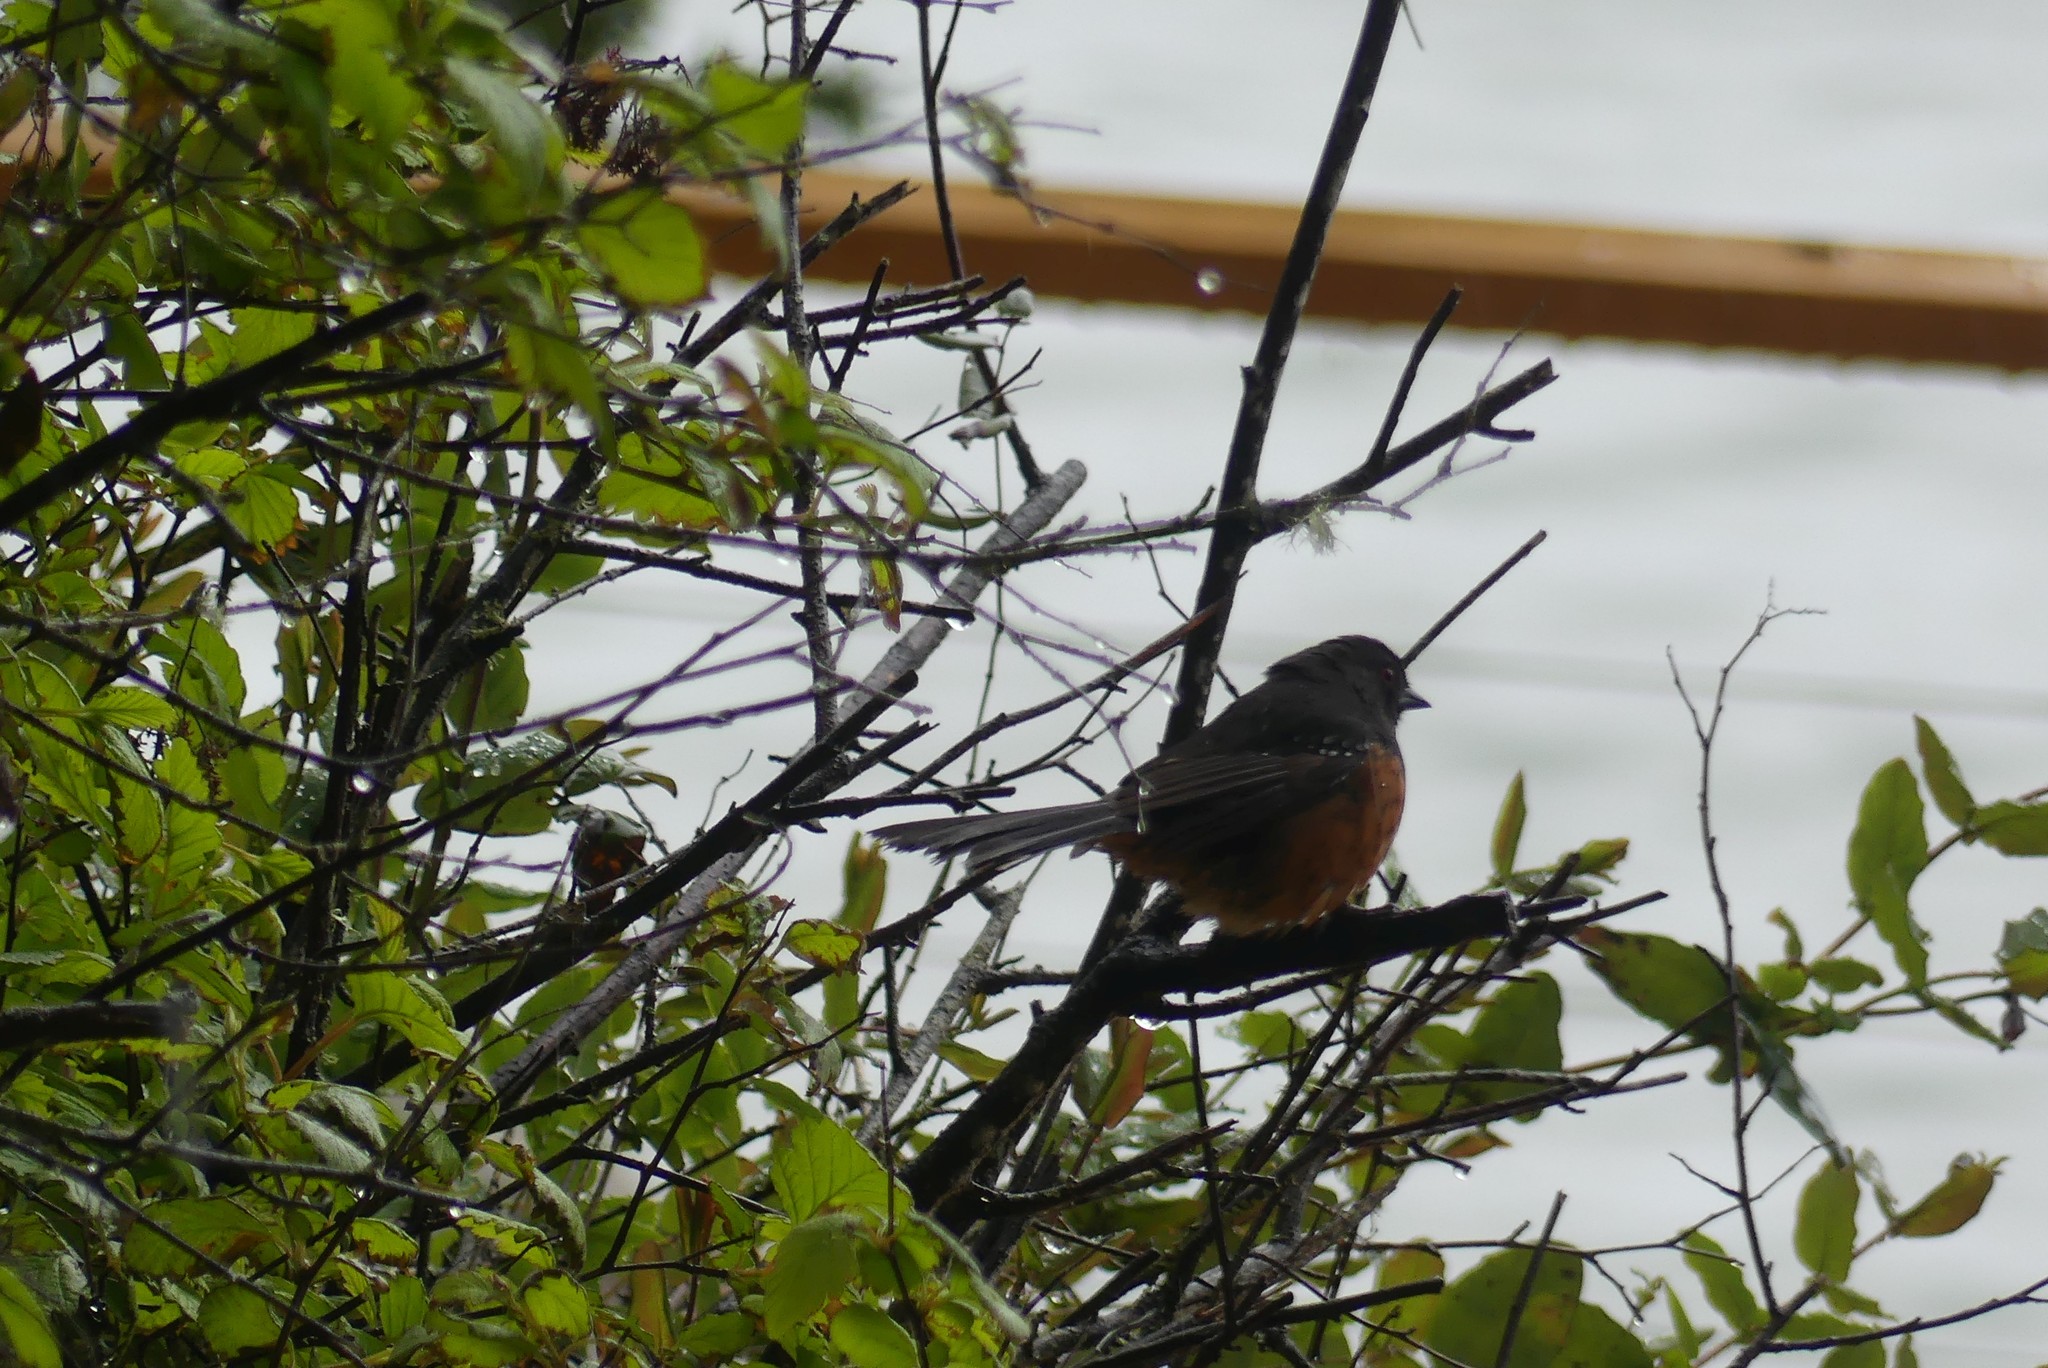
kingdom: Animalia
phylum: Chordata
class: Aves
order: Passeriformes
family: Passerellidae
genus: Pipilo
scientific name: Pipilo maculatus
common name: Spotted towhee
